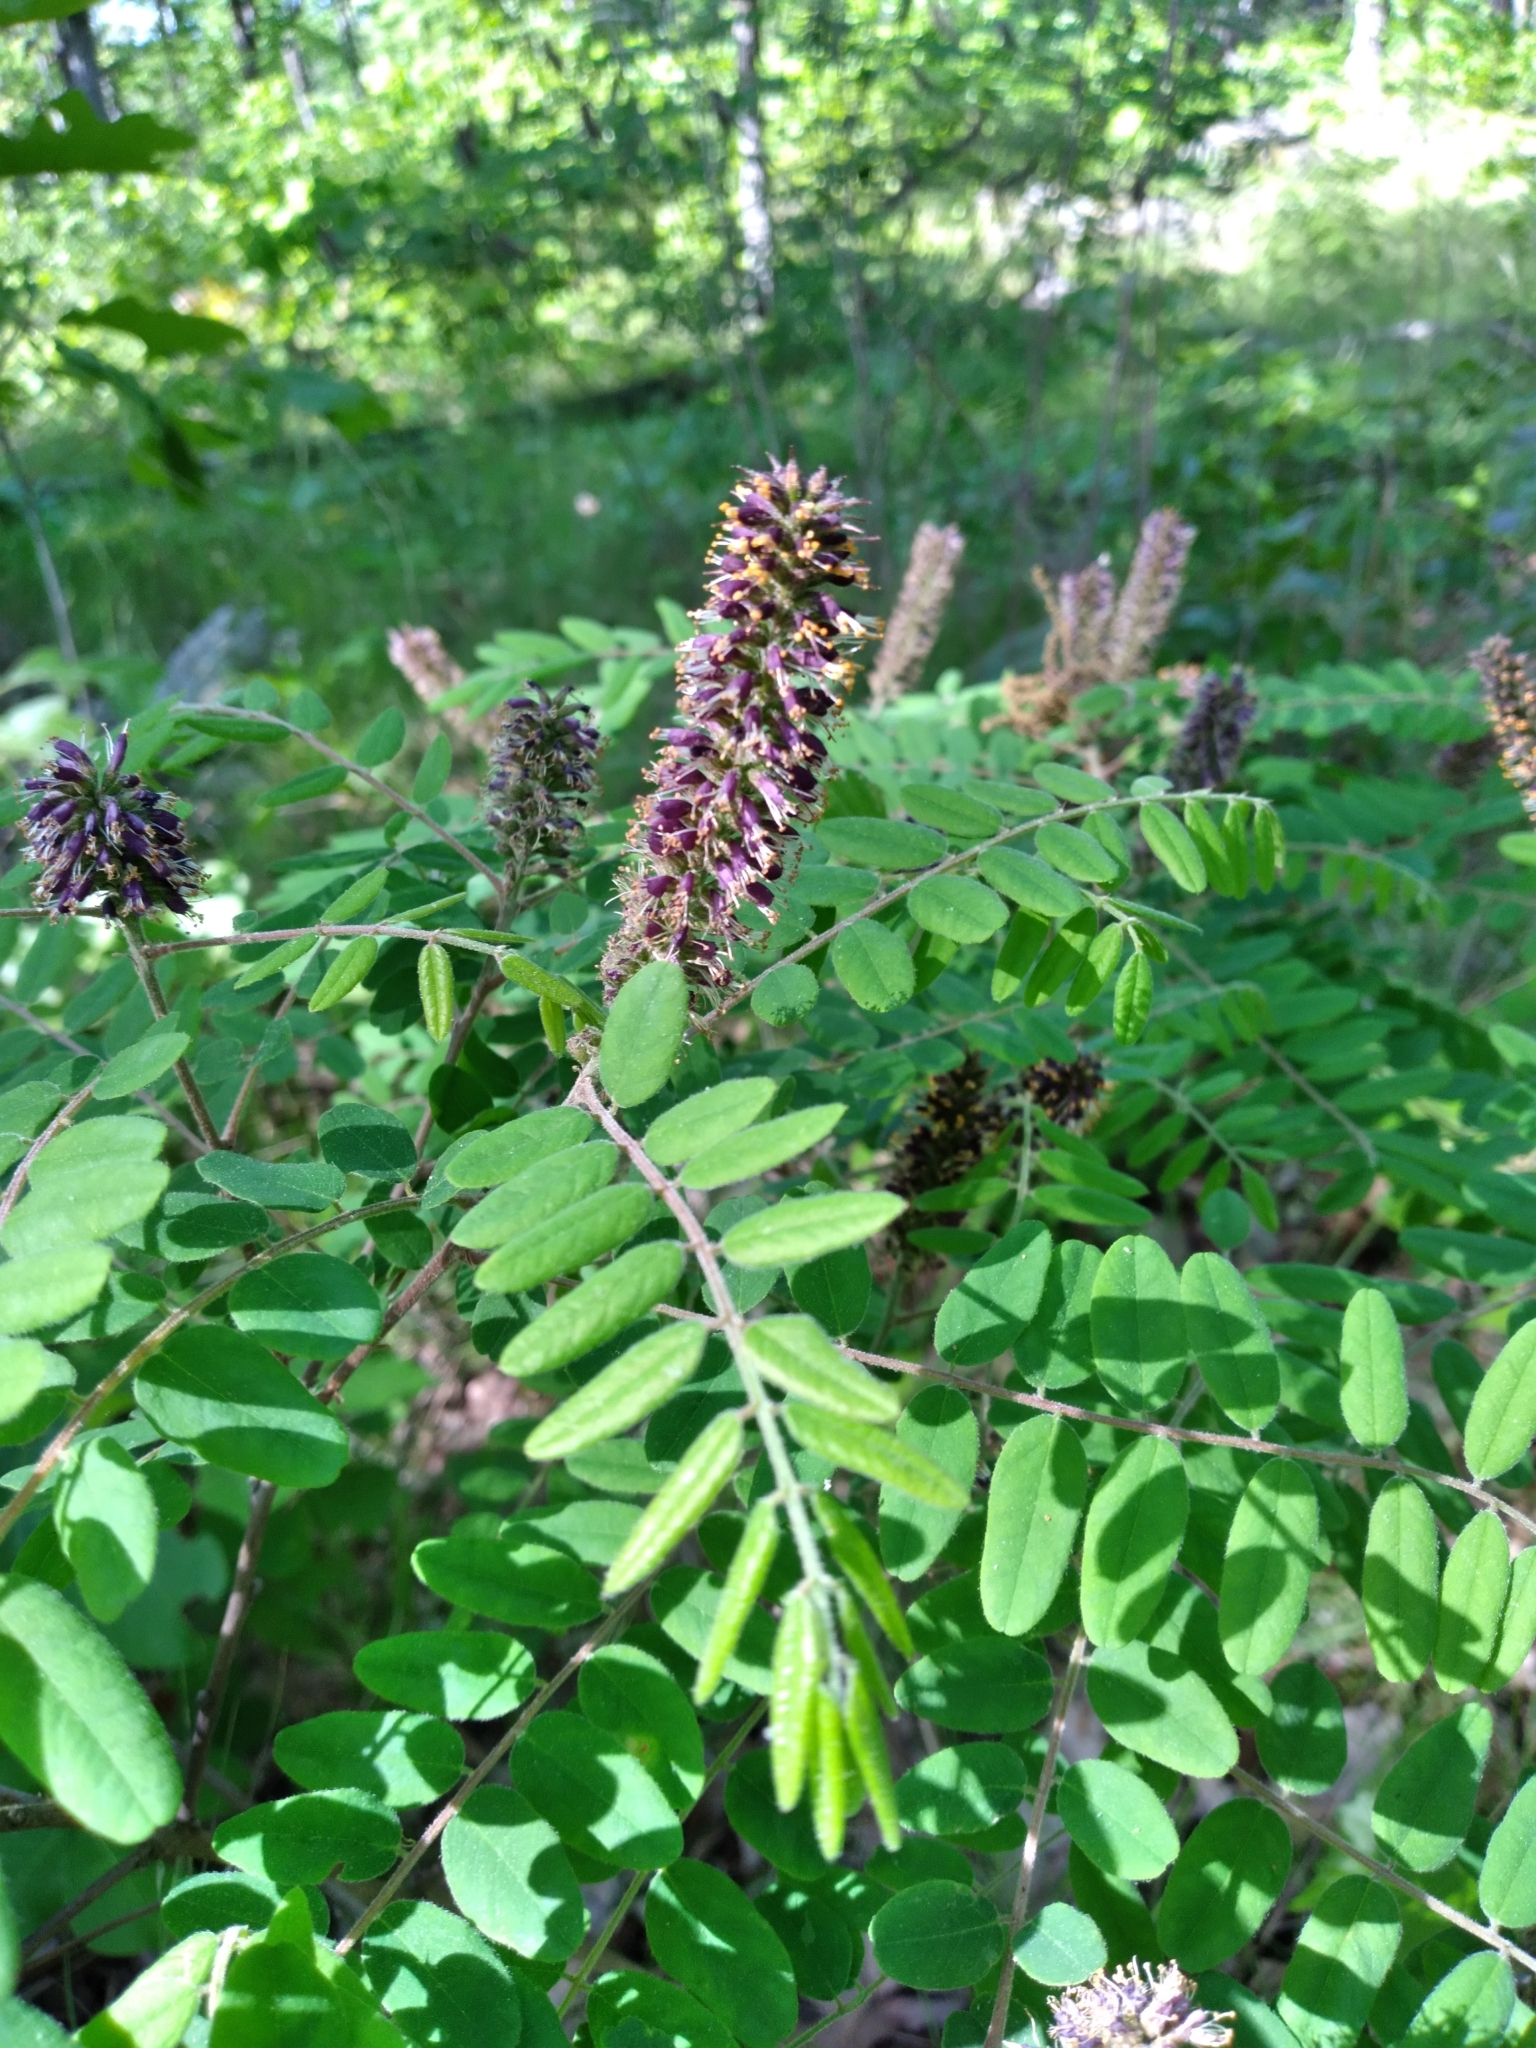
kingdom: Plantae
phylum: Tracheophyta
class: Magnoliopsida
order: Fabales
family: Fabaceae
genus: Amorpha
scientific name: Amorpha schwerinii
